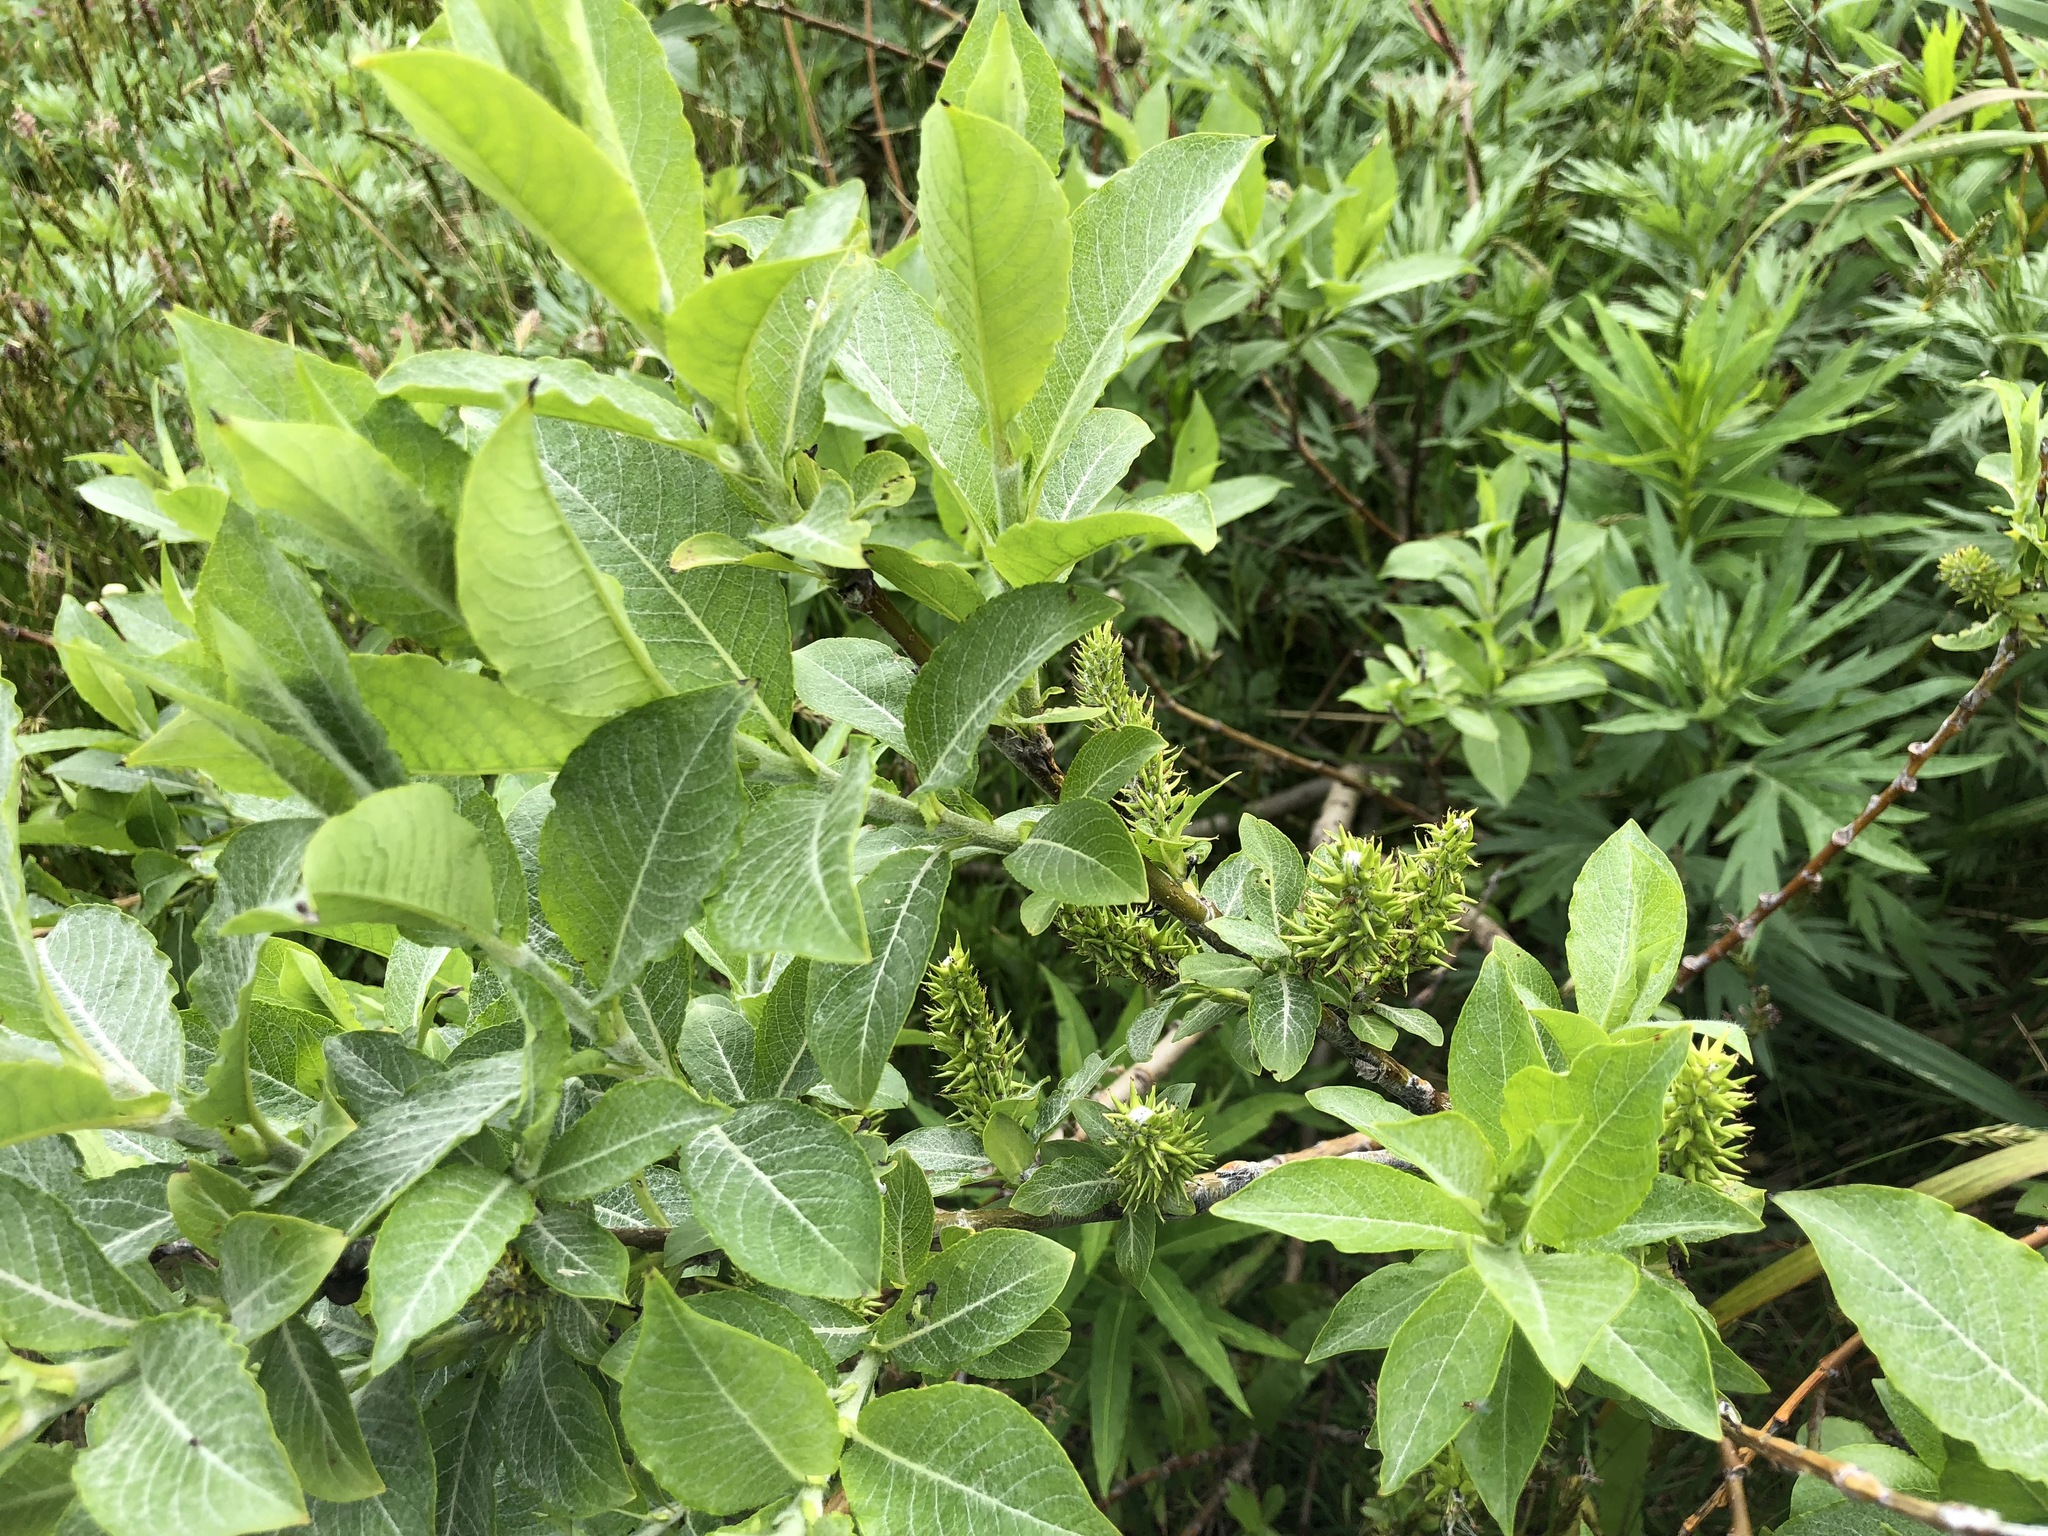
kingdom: Plantae
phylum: Tracheophyta
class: Magnoliopsida
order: Malpighiales
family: Salicaceae
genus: Salix
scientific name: Salix barclayi
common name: Mountain willow
